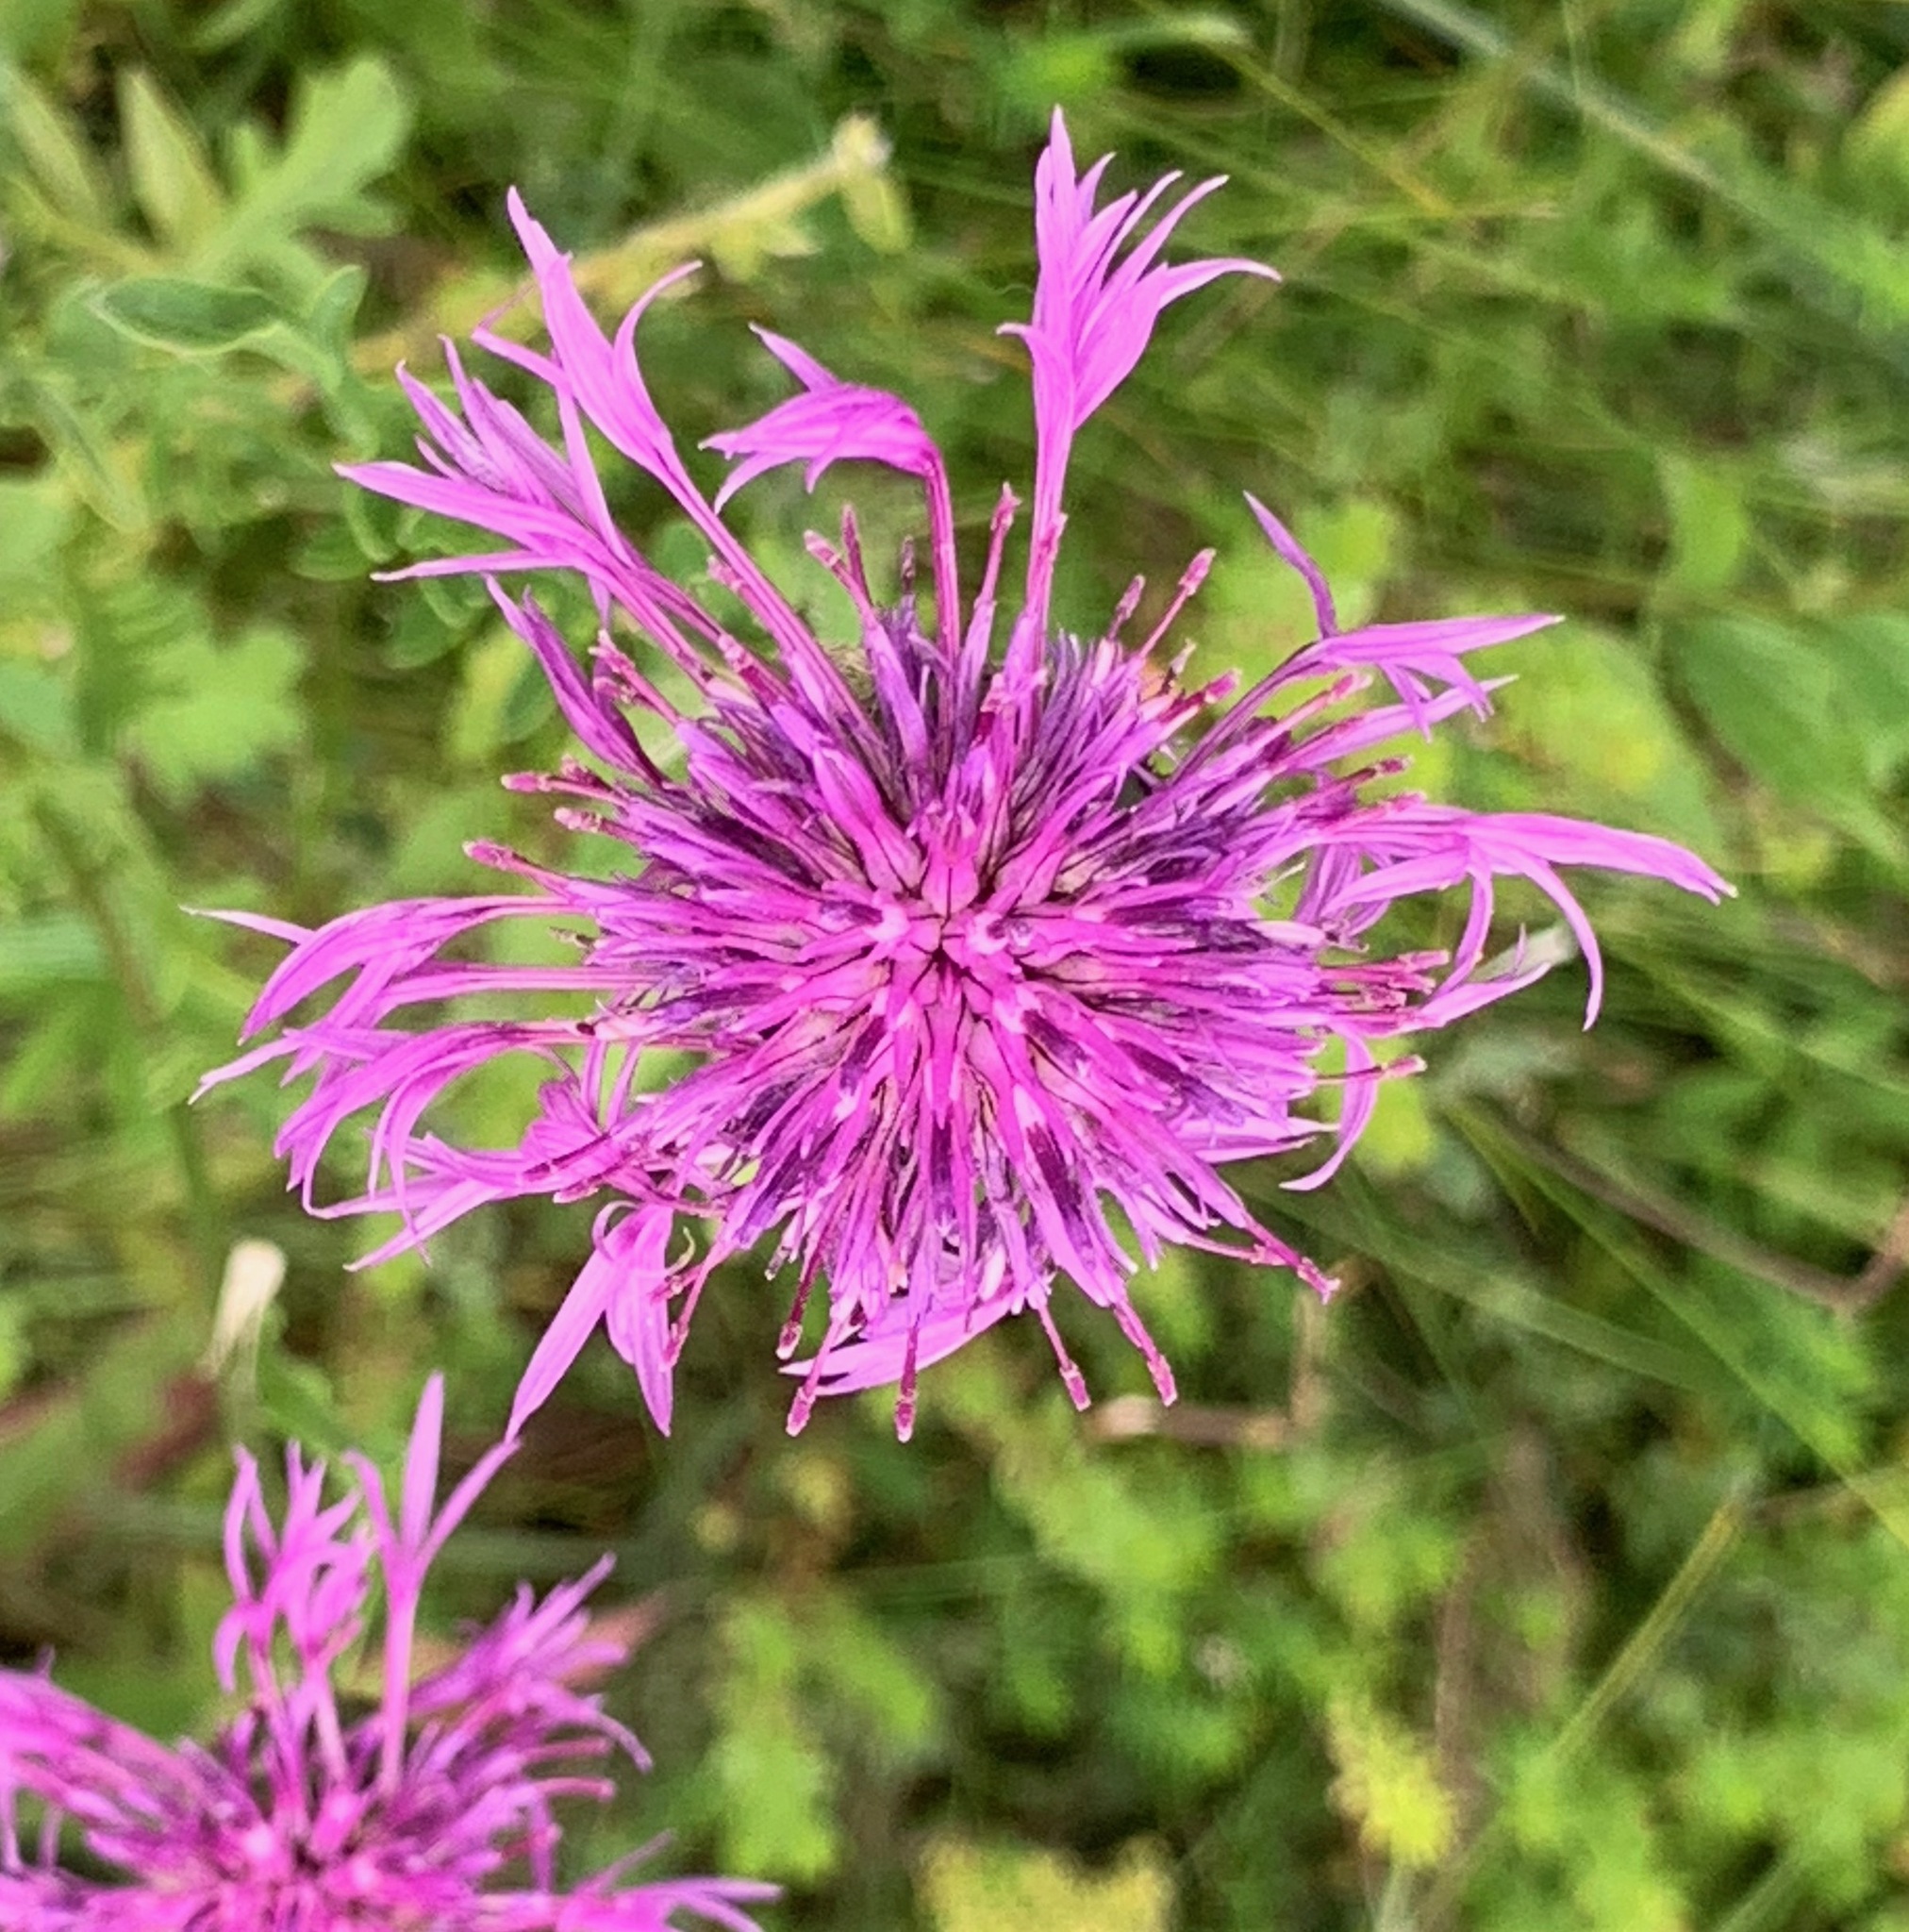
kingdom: Plantae
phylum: Tracheophyta
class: Magnoliopsida
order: Asterales
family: Asteraceae
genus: Centaurea
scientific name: Centaurea scabiosa
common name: Greater knapweed
